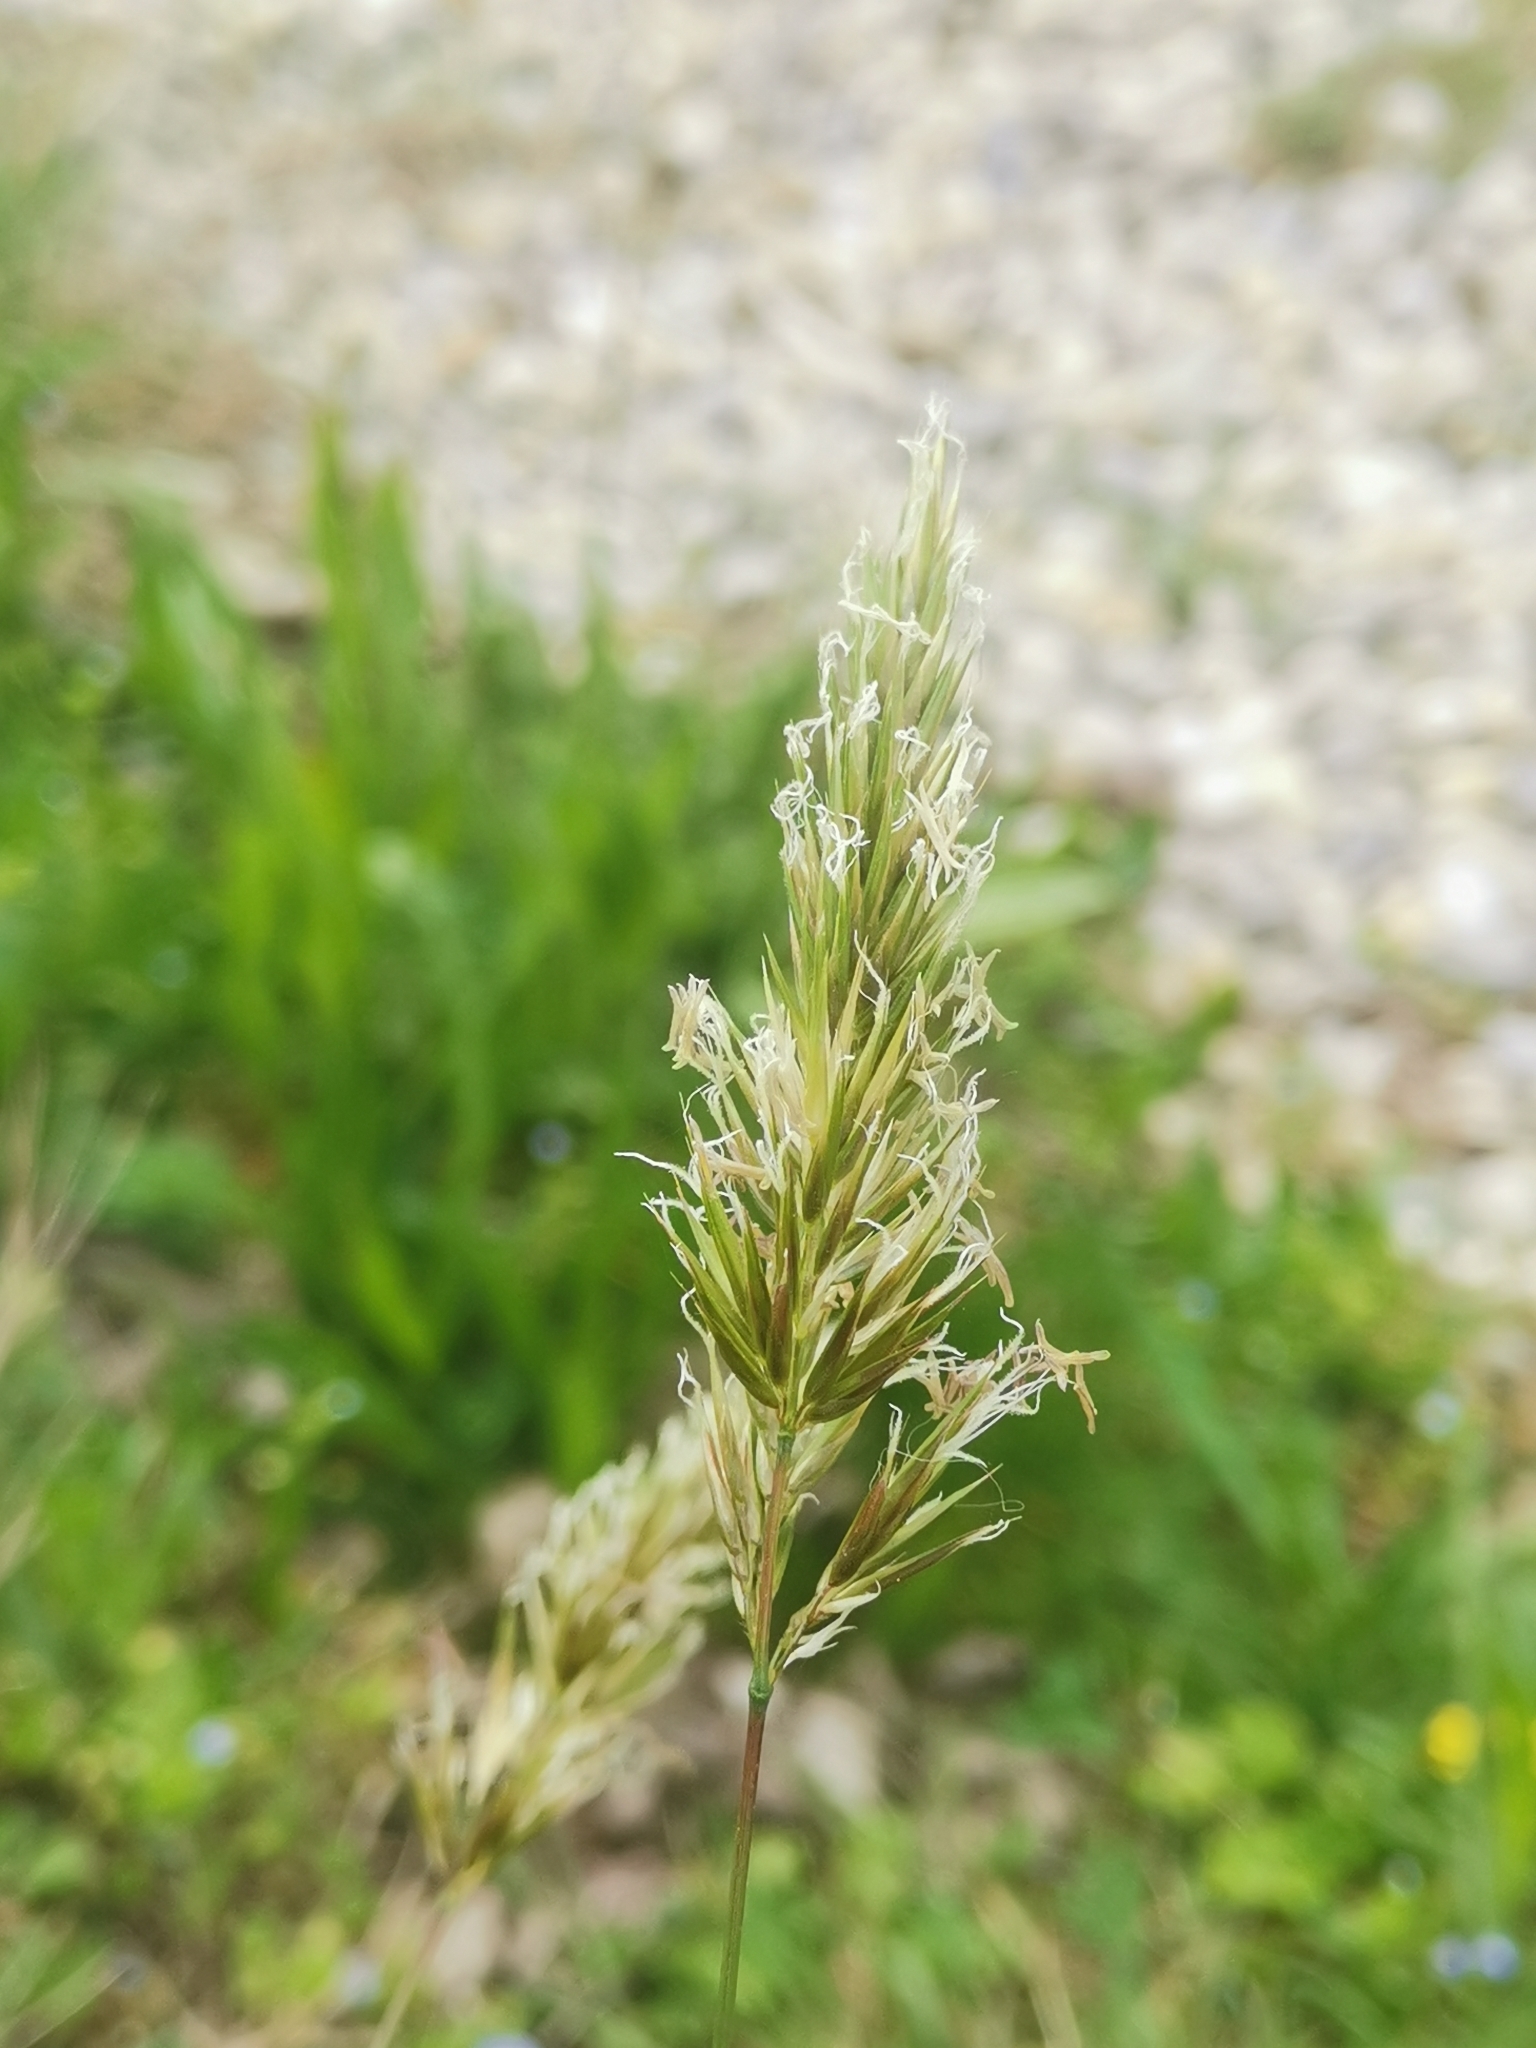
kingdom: Plantae
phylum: Tracheophyta
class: Liliopsida
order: Poales
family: Poaceae
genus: Anthoxanthum
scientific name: Anthoxanthum odoratum
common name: Sweet vernalgrass
